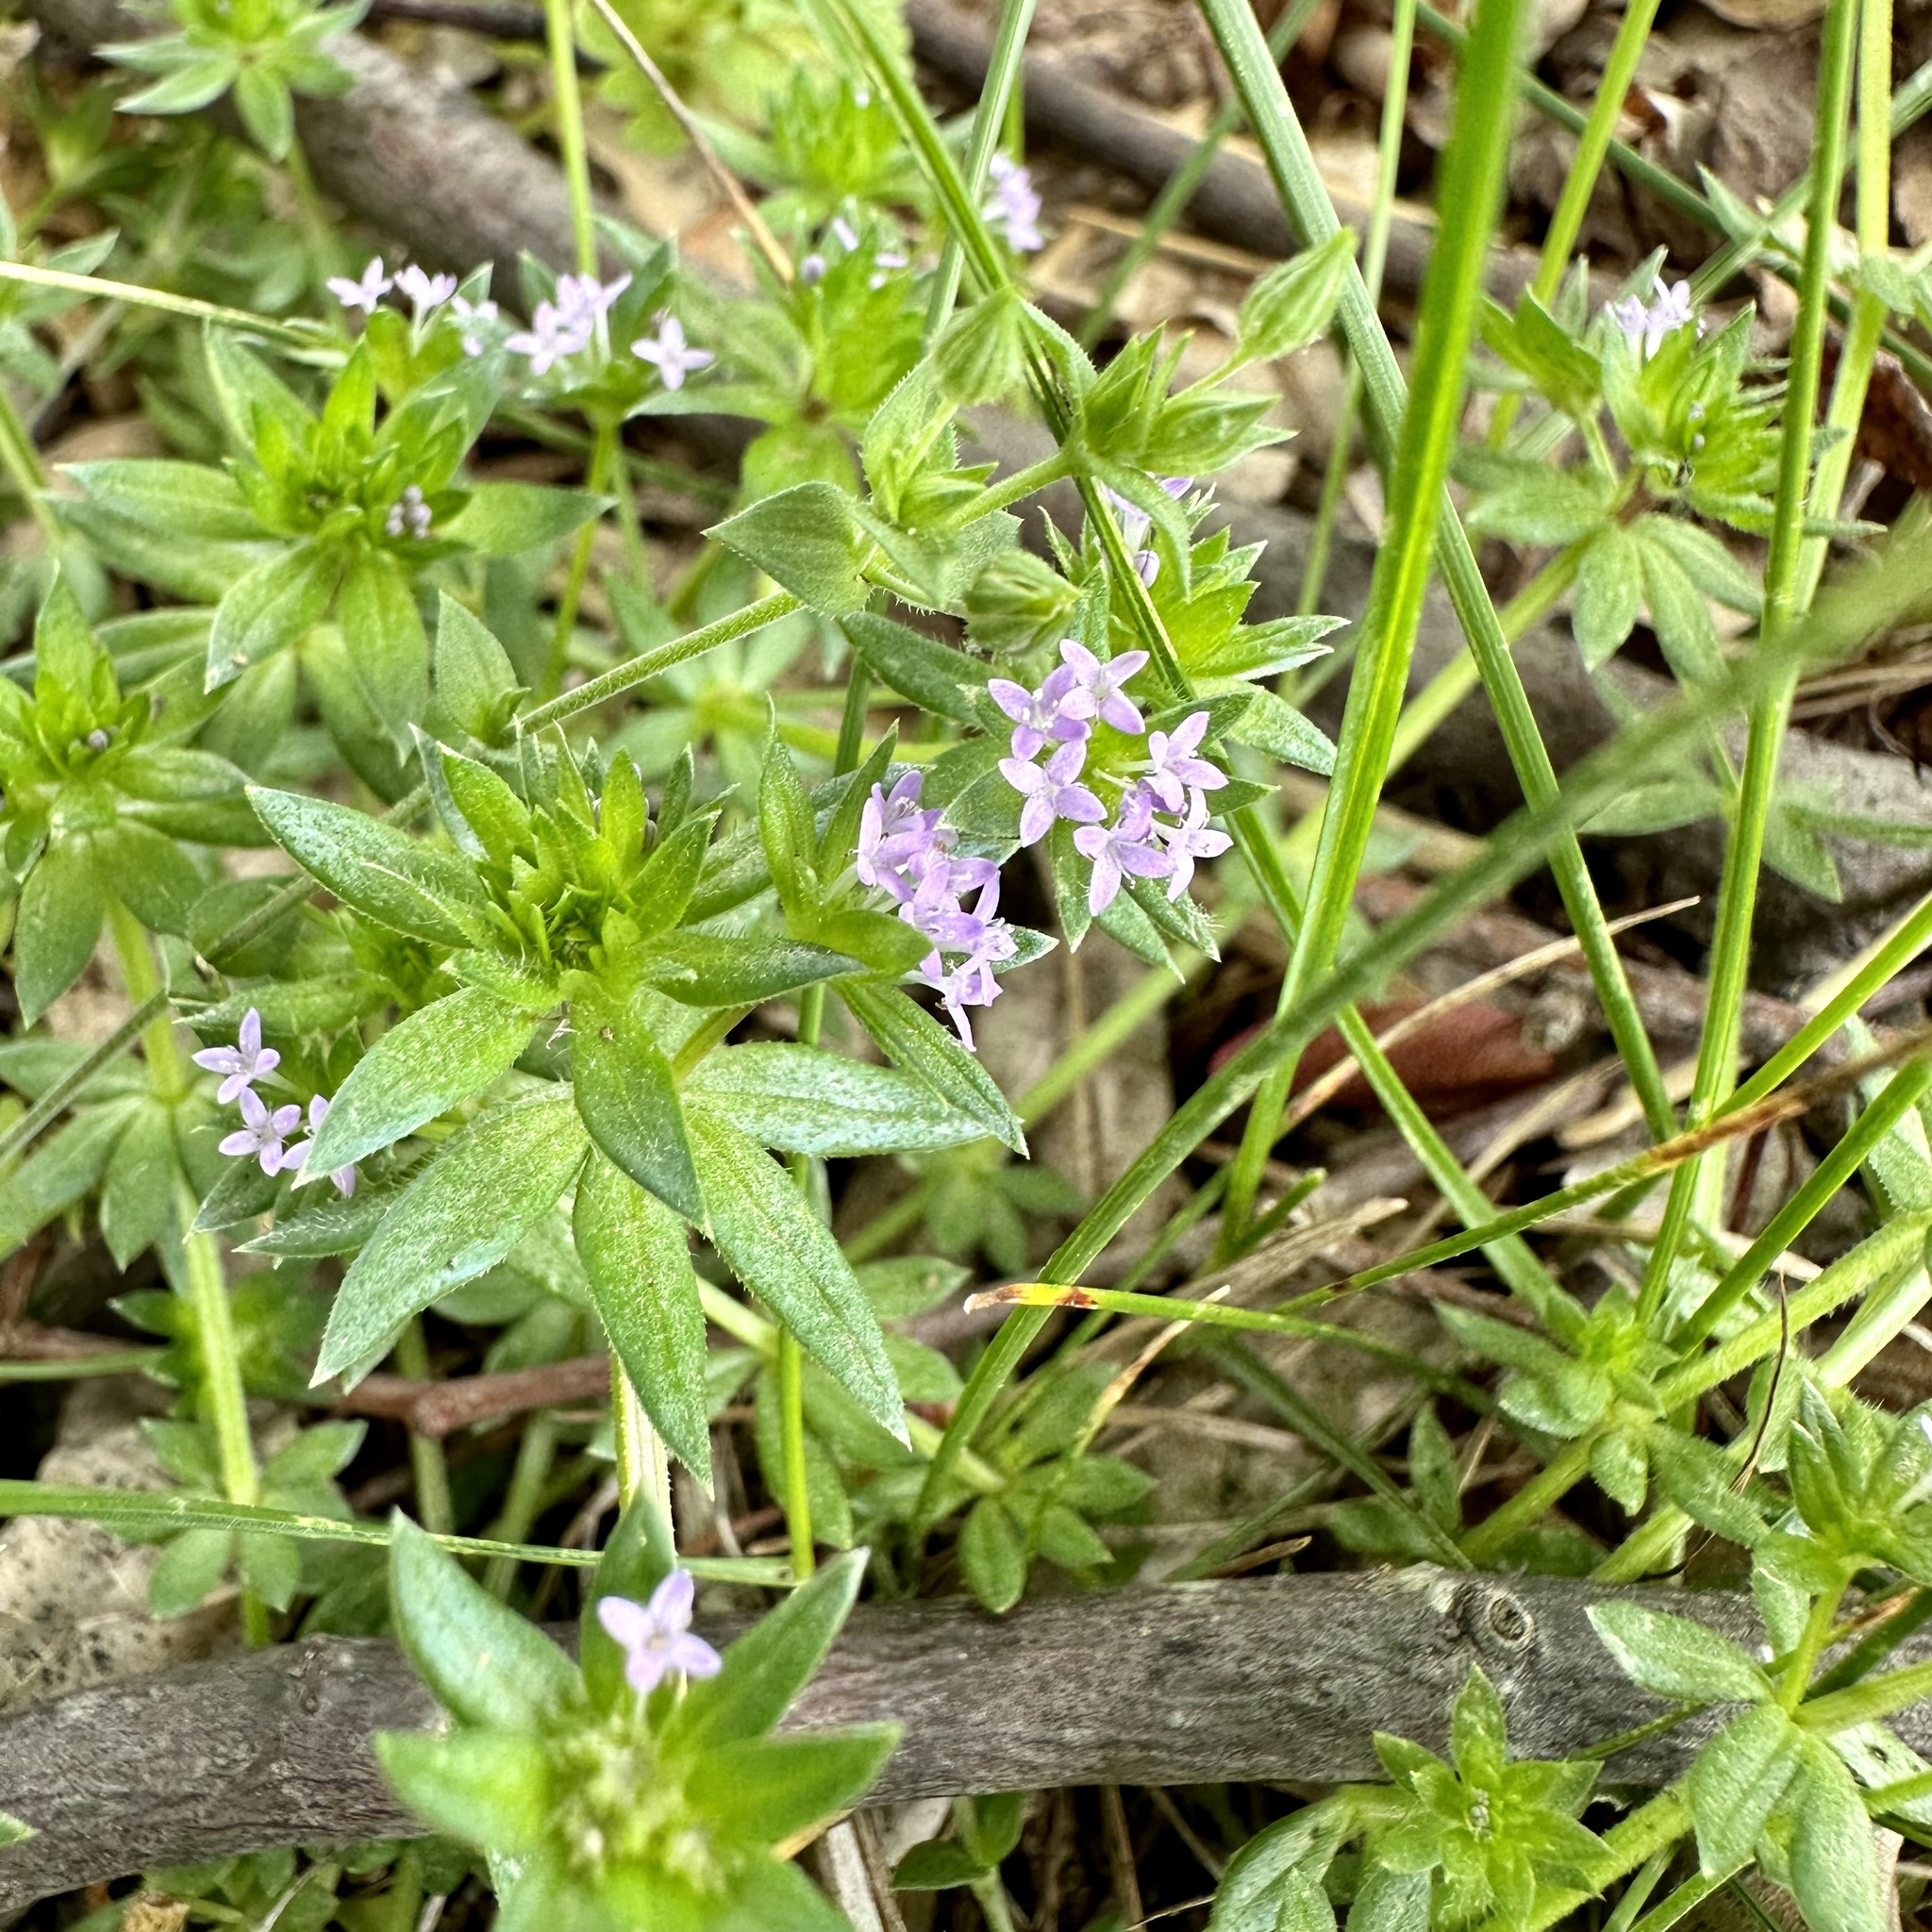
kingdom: Plantae
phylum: Tracheophyta
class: Magnoliopsida
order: Gentianales
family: Rubiaceae
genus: Sherardia
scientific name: Sherardia arvensis
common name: Field madder
